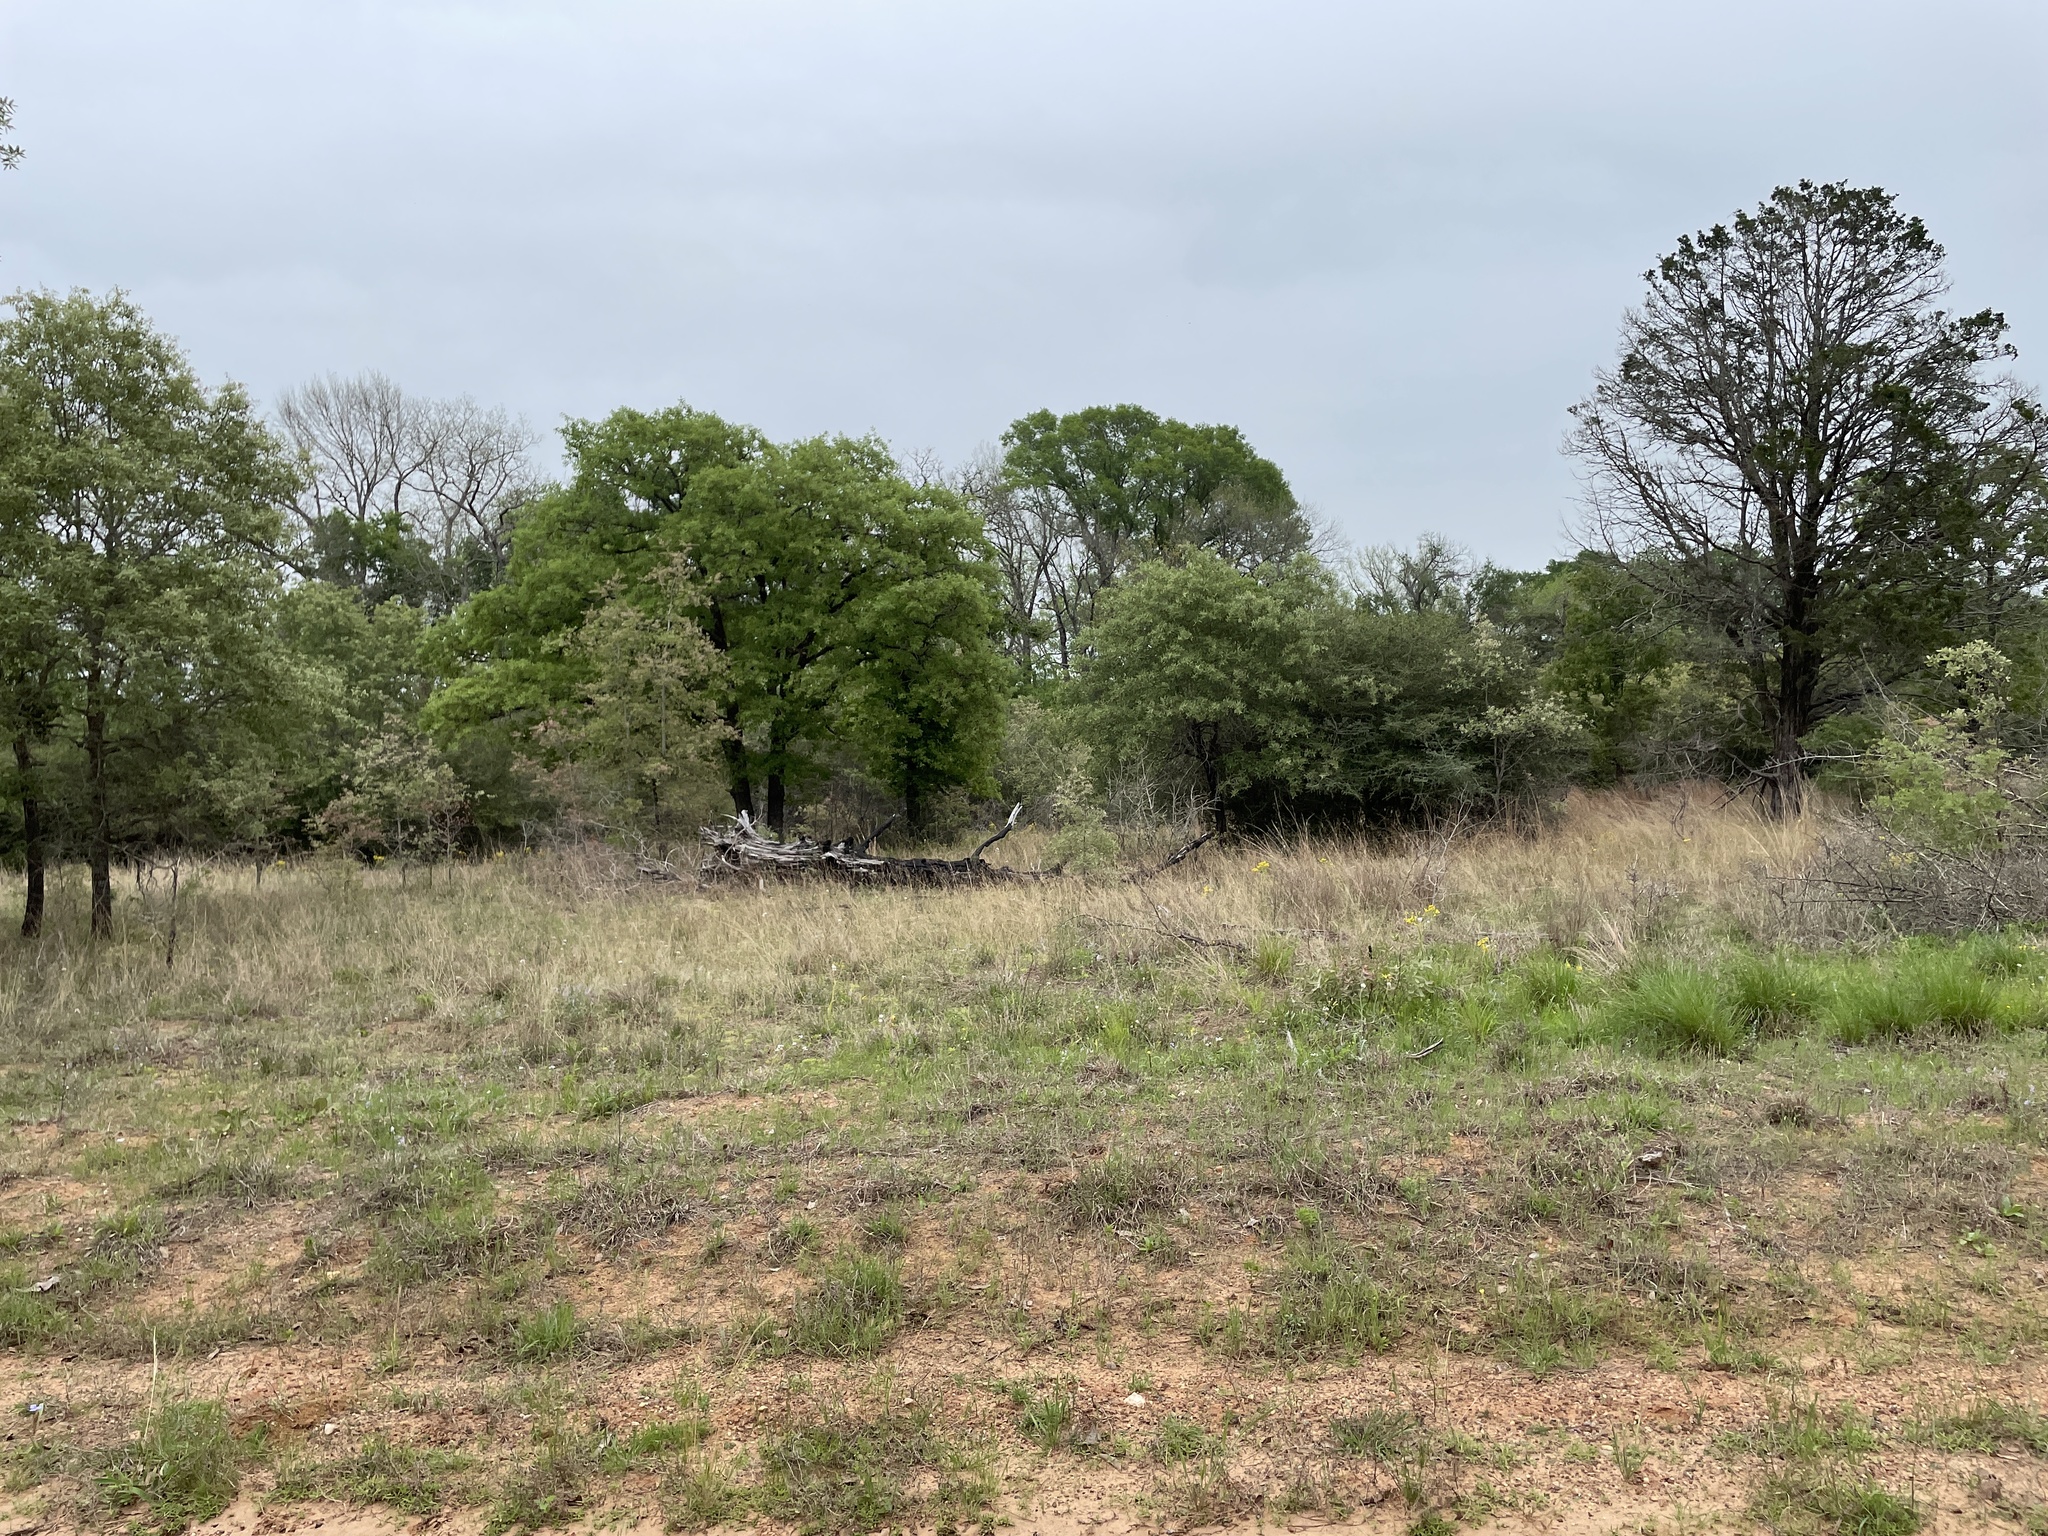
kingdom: Animalia
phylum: Chordata
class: Aves
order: Passeriformes
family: Cardinalidae
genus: Piranga
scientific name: Piranga rubra
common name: Summer tanager
